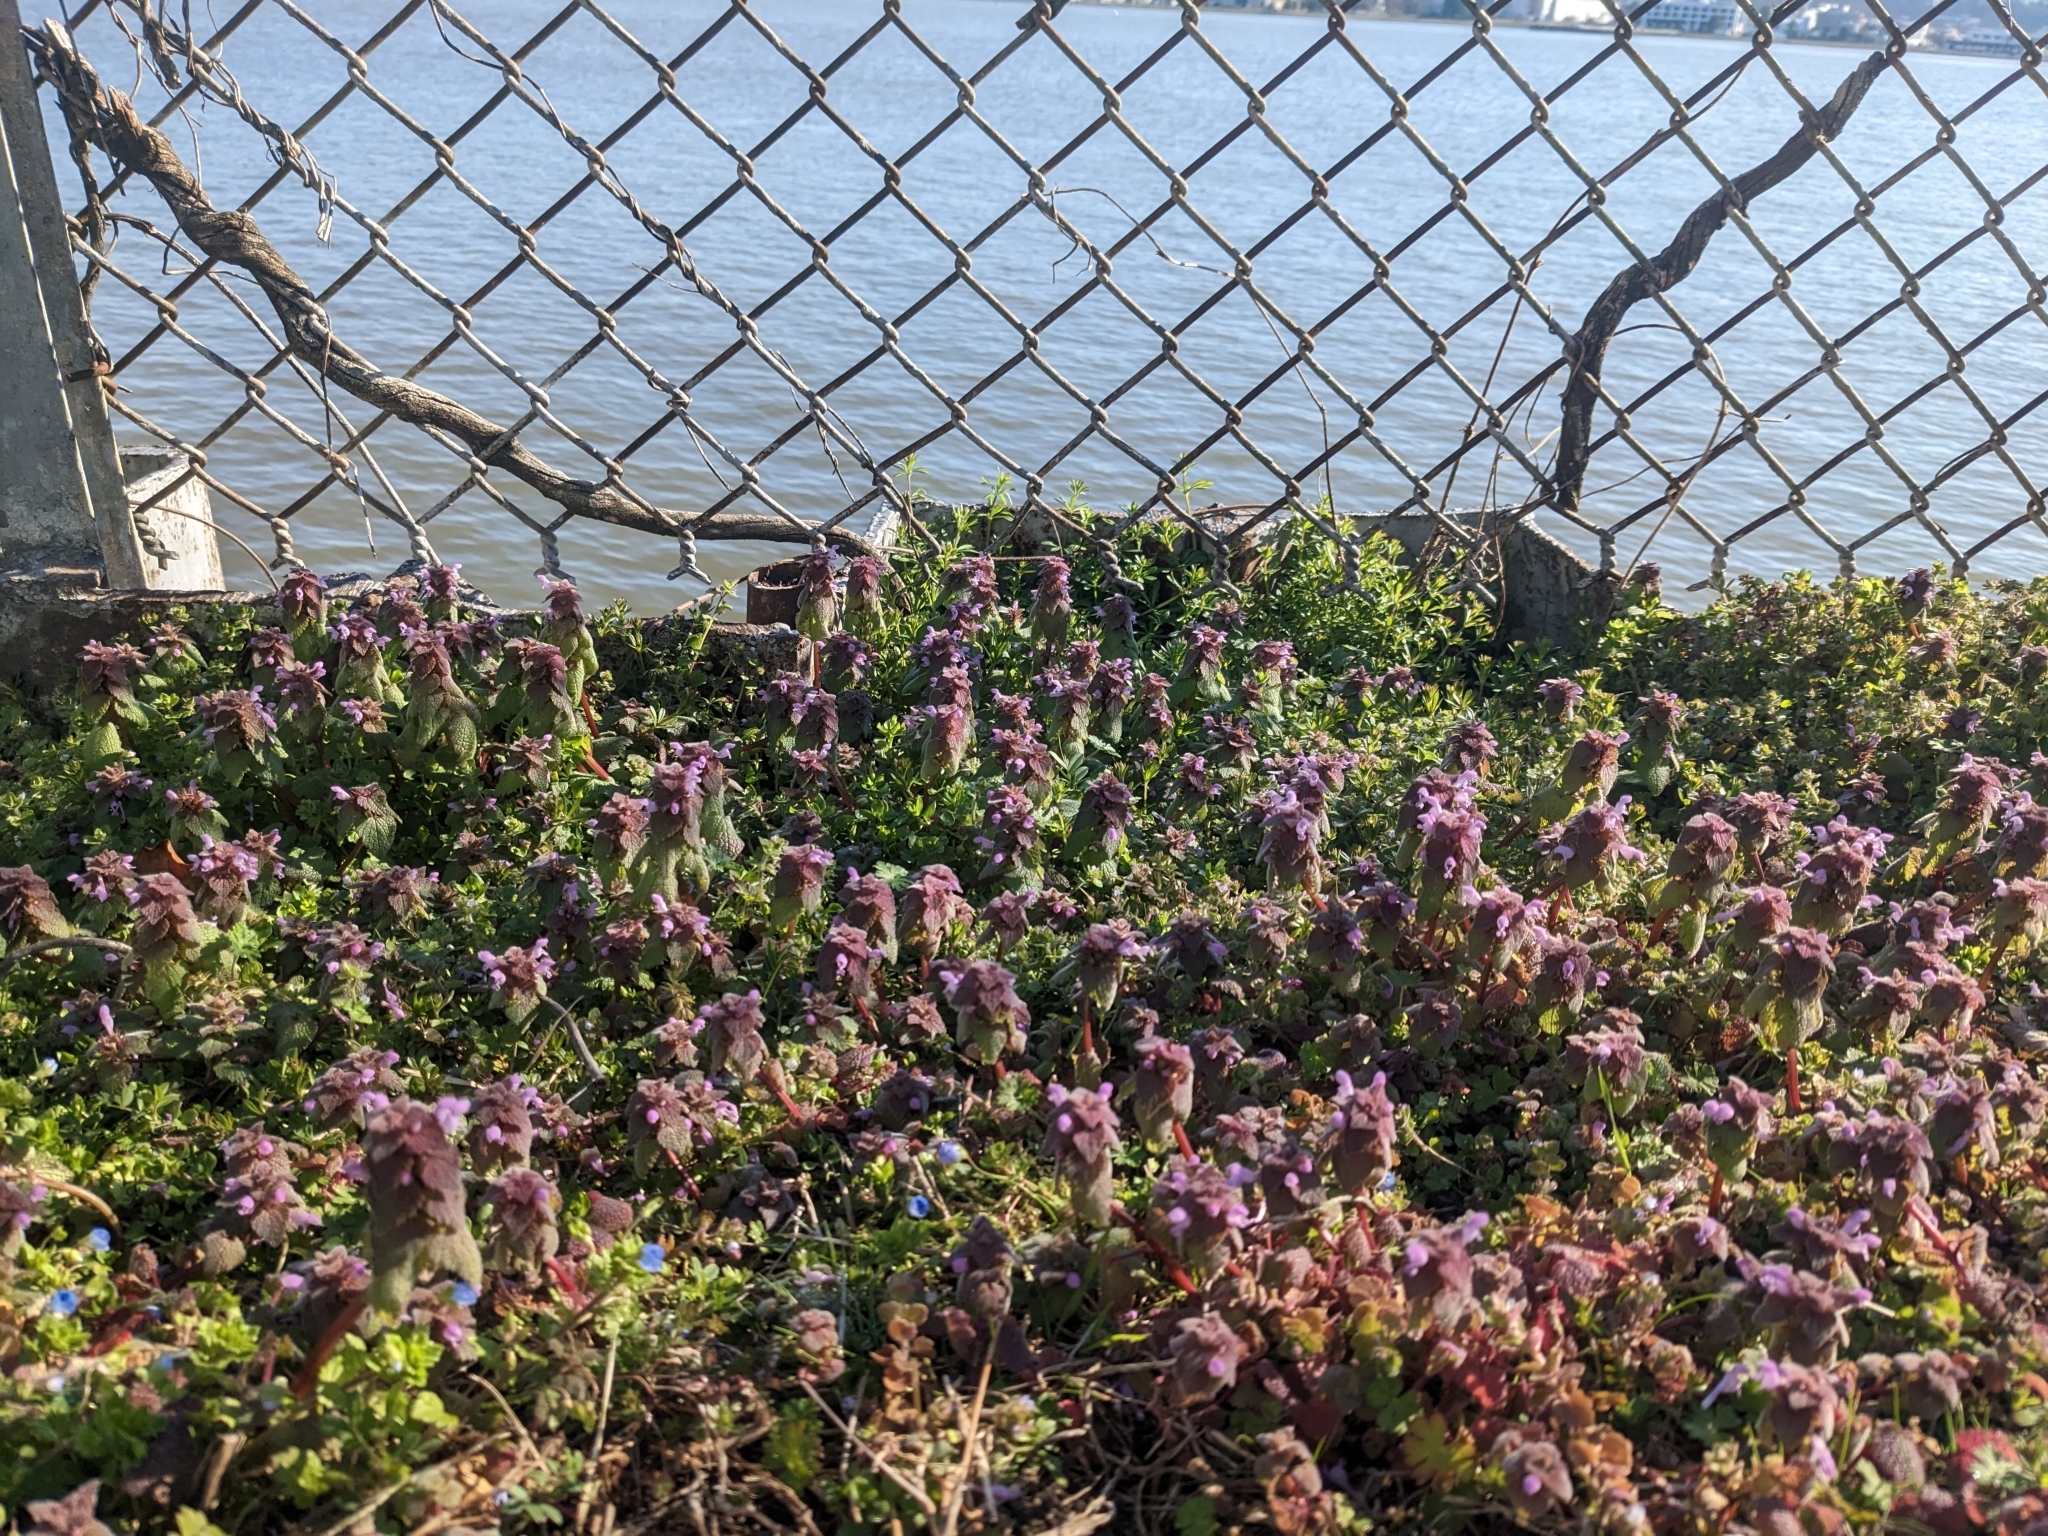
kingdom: Plantae
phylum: Tracheophyta
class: Magnoliopsida
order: Lamiales
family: Lamiaceae
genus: Lamium
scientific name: Lamium purpureum
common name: Red dead-nettle
